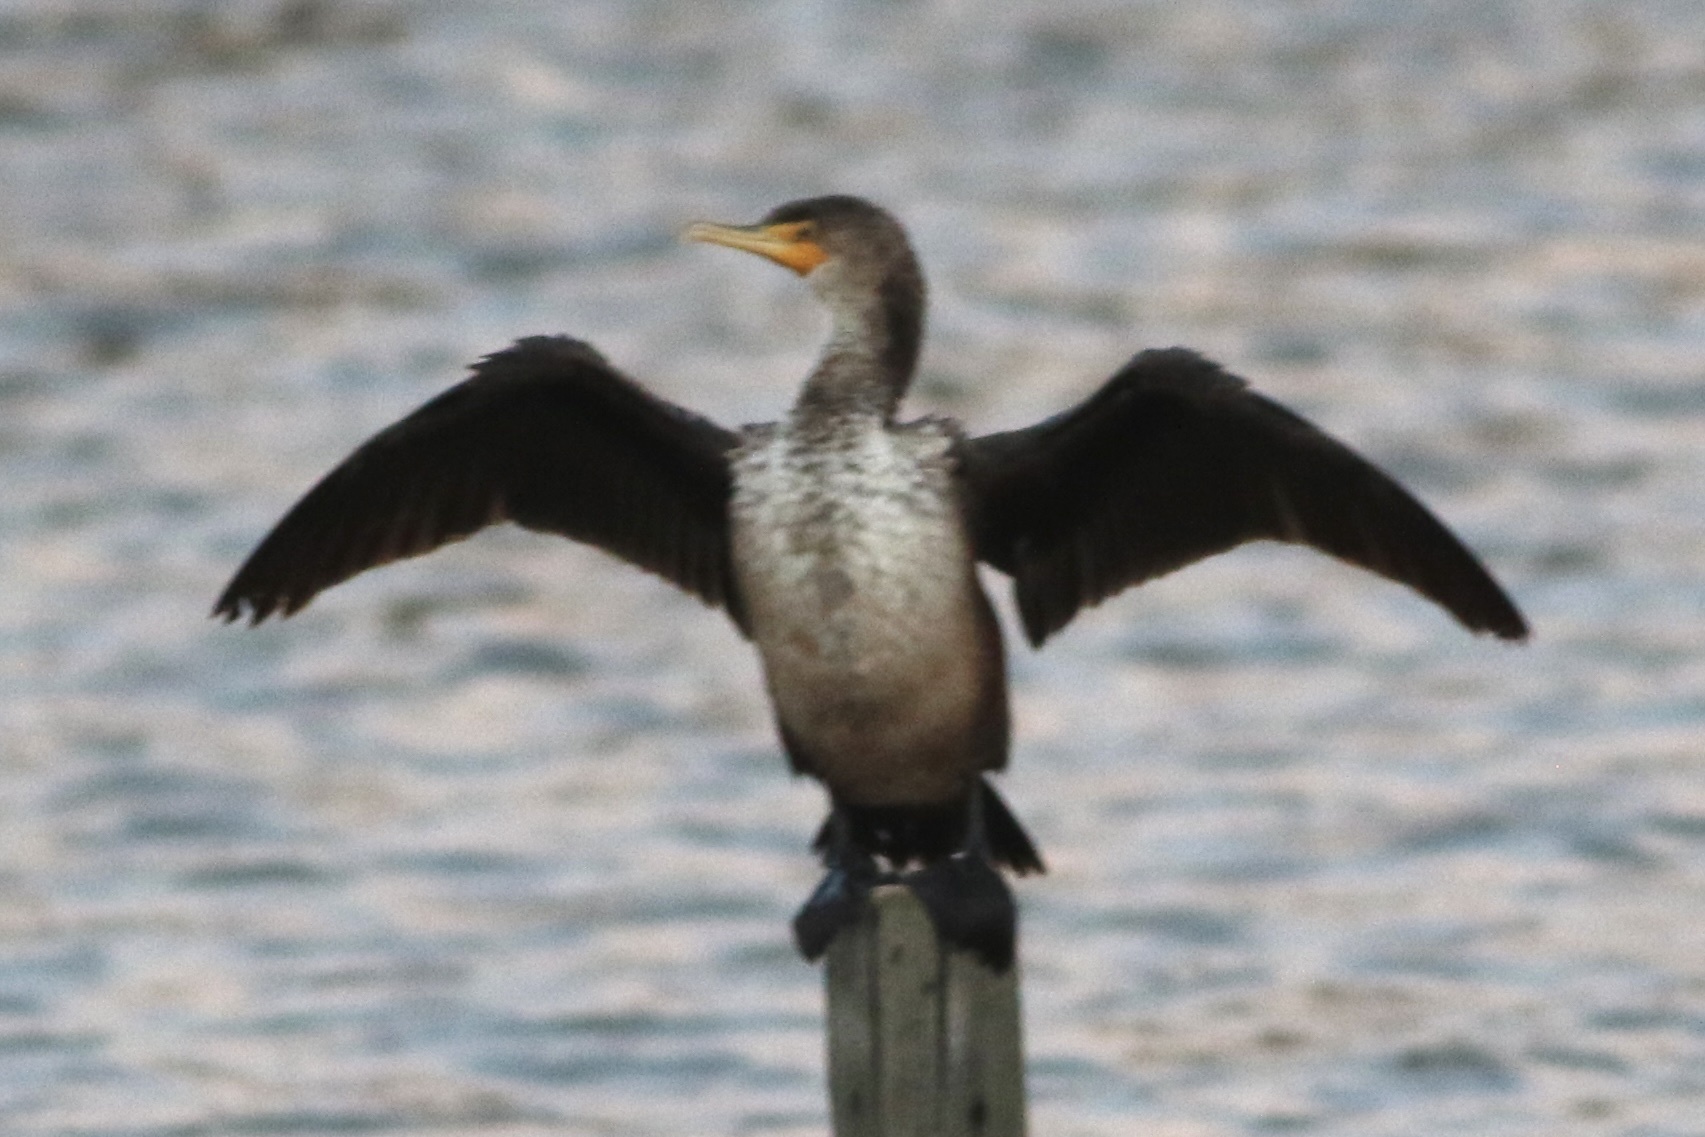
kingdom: Animalia
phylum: Chordata
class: Aves
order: Suliformes
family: Phalacrocoracidae
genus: Phalacrocorax
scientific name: Phalacrocorax auritus
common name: Double-crested cormorant
